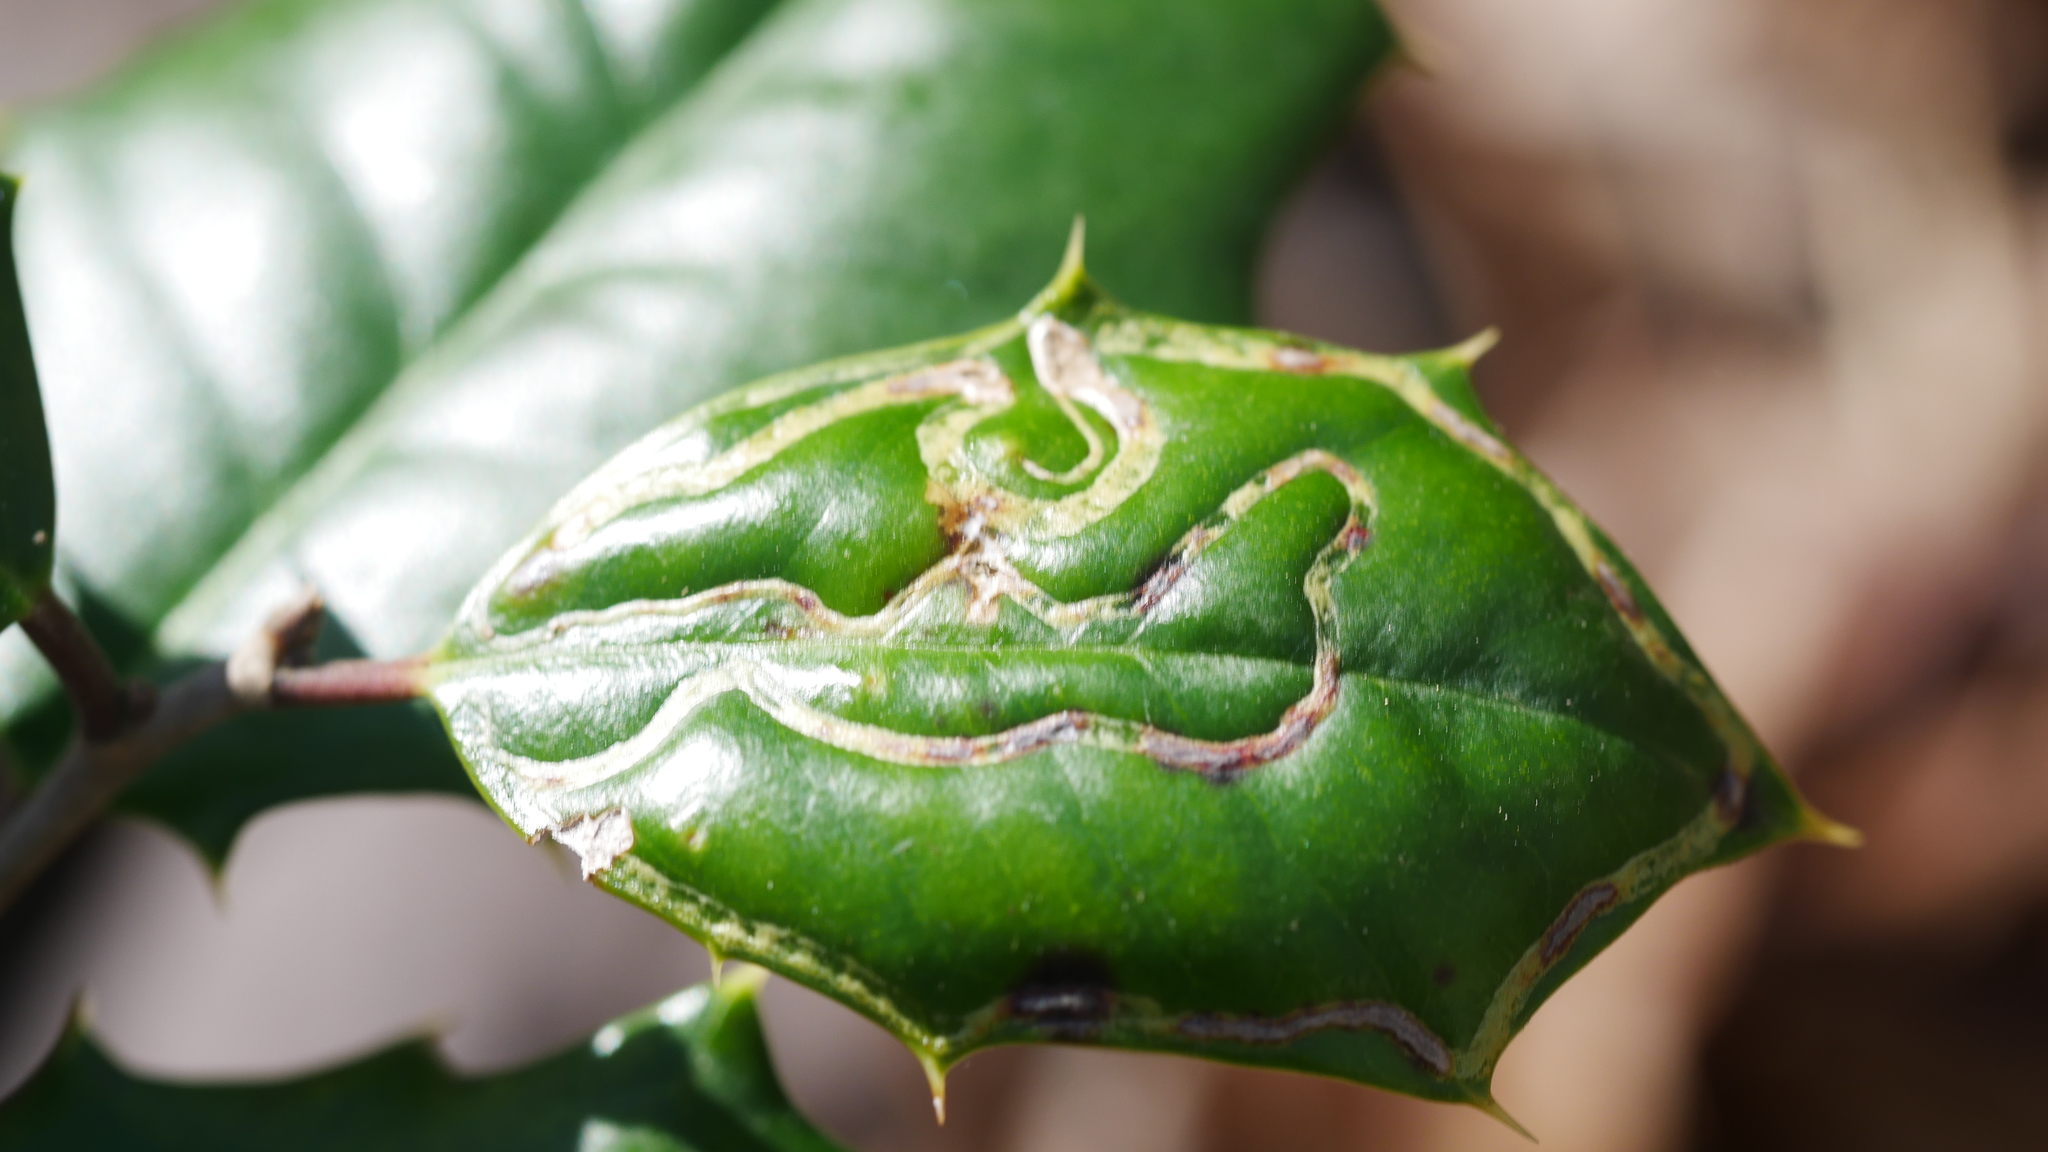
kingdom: Animalia
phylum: Arthropoda
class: Insecta
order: Diptera
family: Agromyzidae
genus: Phytomyza
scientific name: Phytomyza opacae
